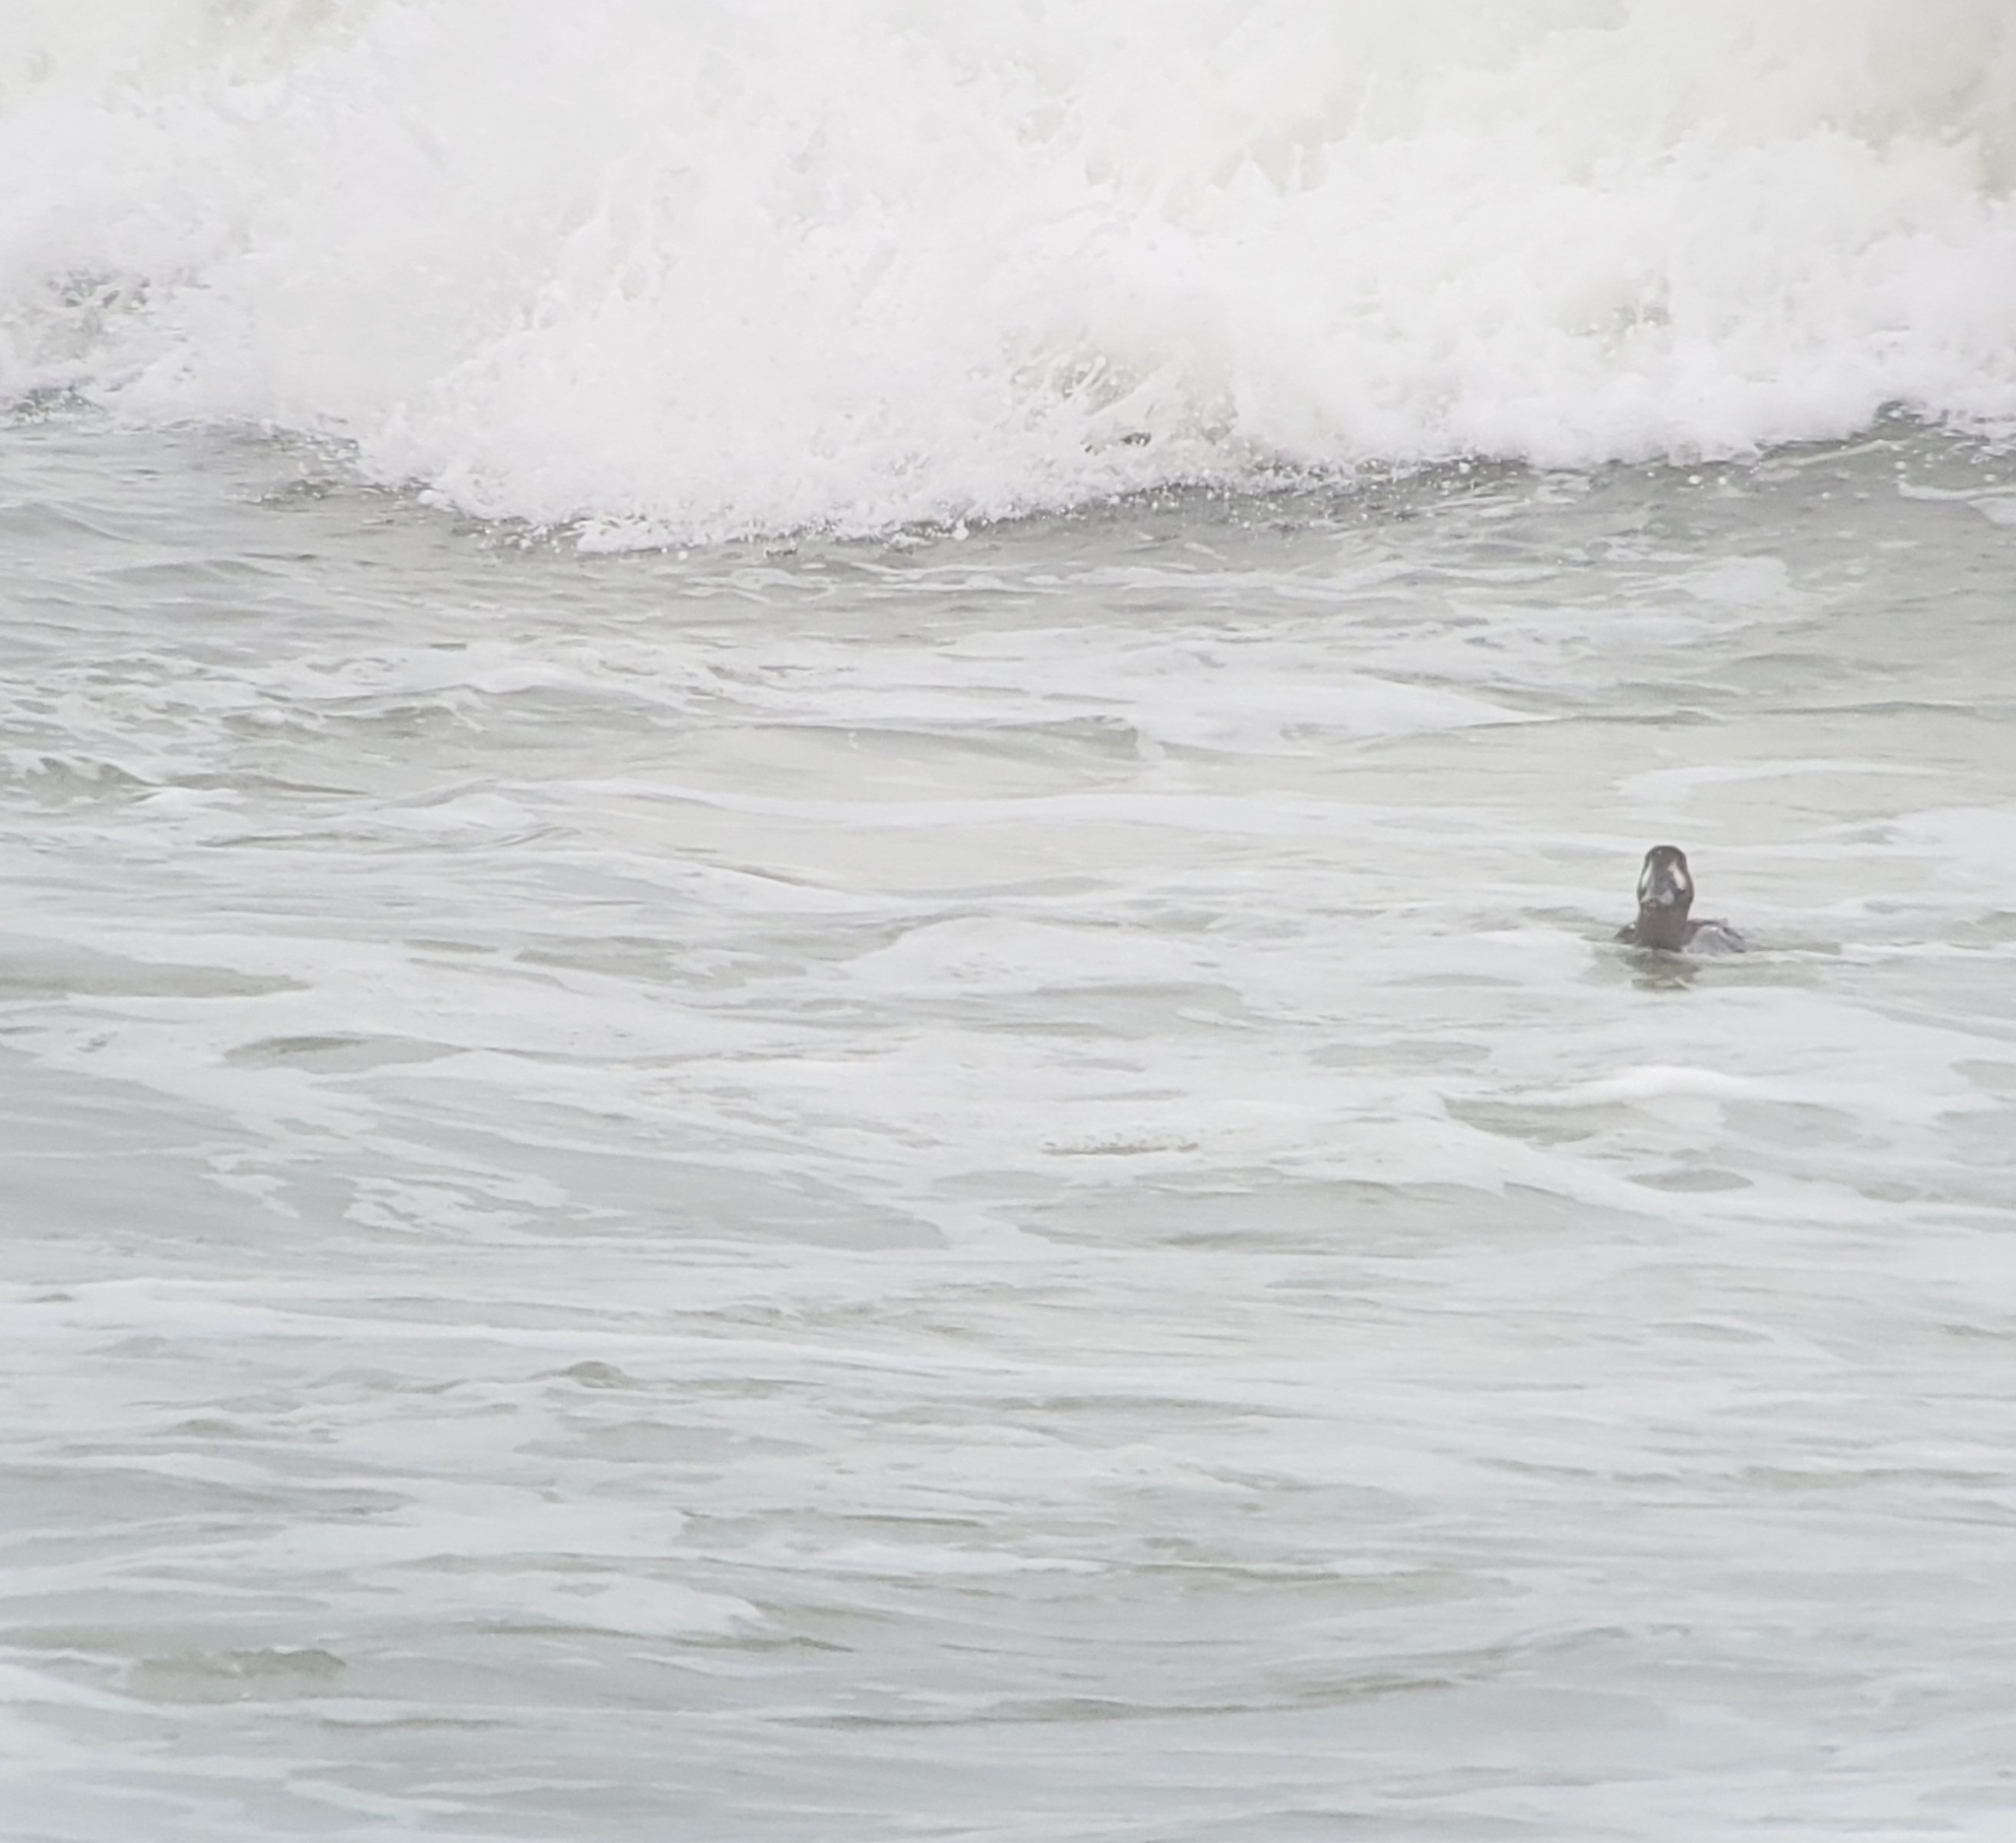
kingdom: Animalia
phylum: Chordata
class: Aves
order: Anseriformes
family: Anatidae
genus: Melanitta
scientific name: Melanitta perspicillata
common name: Surf scoter
